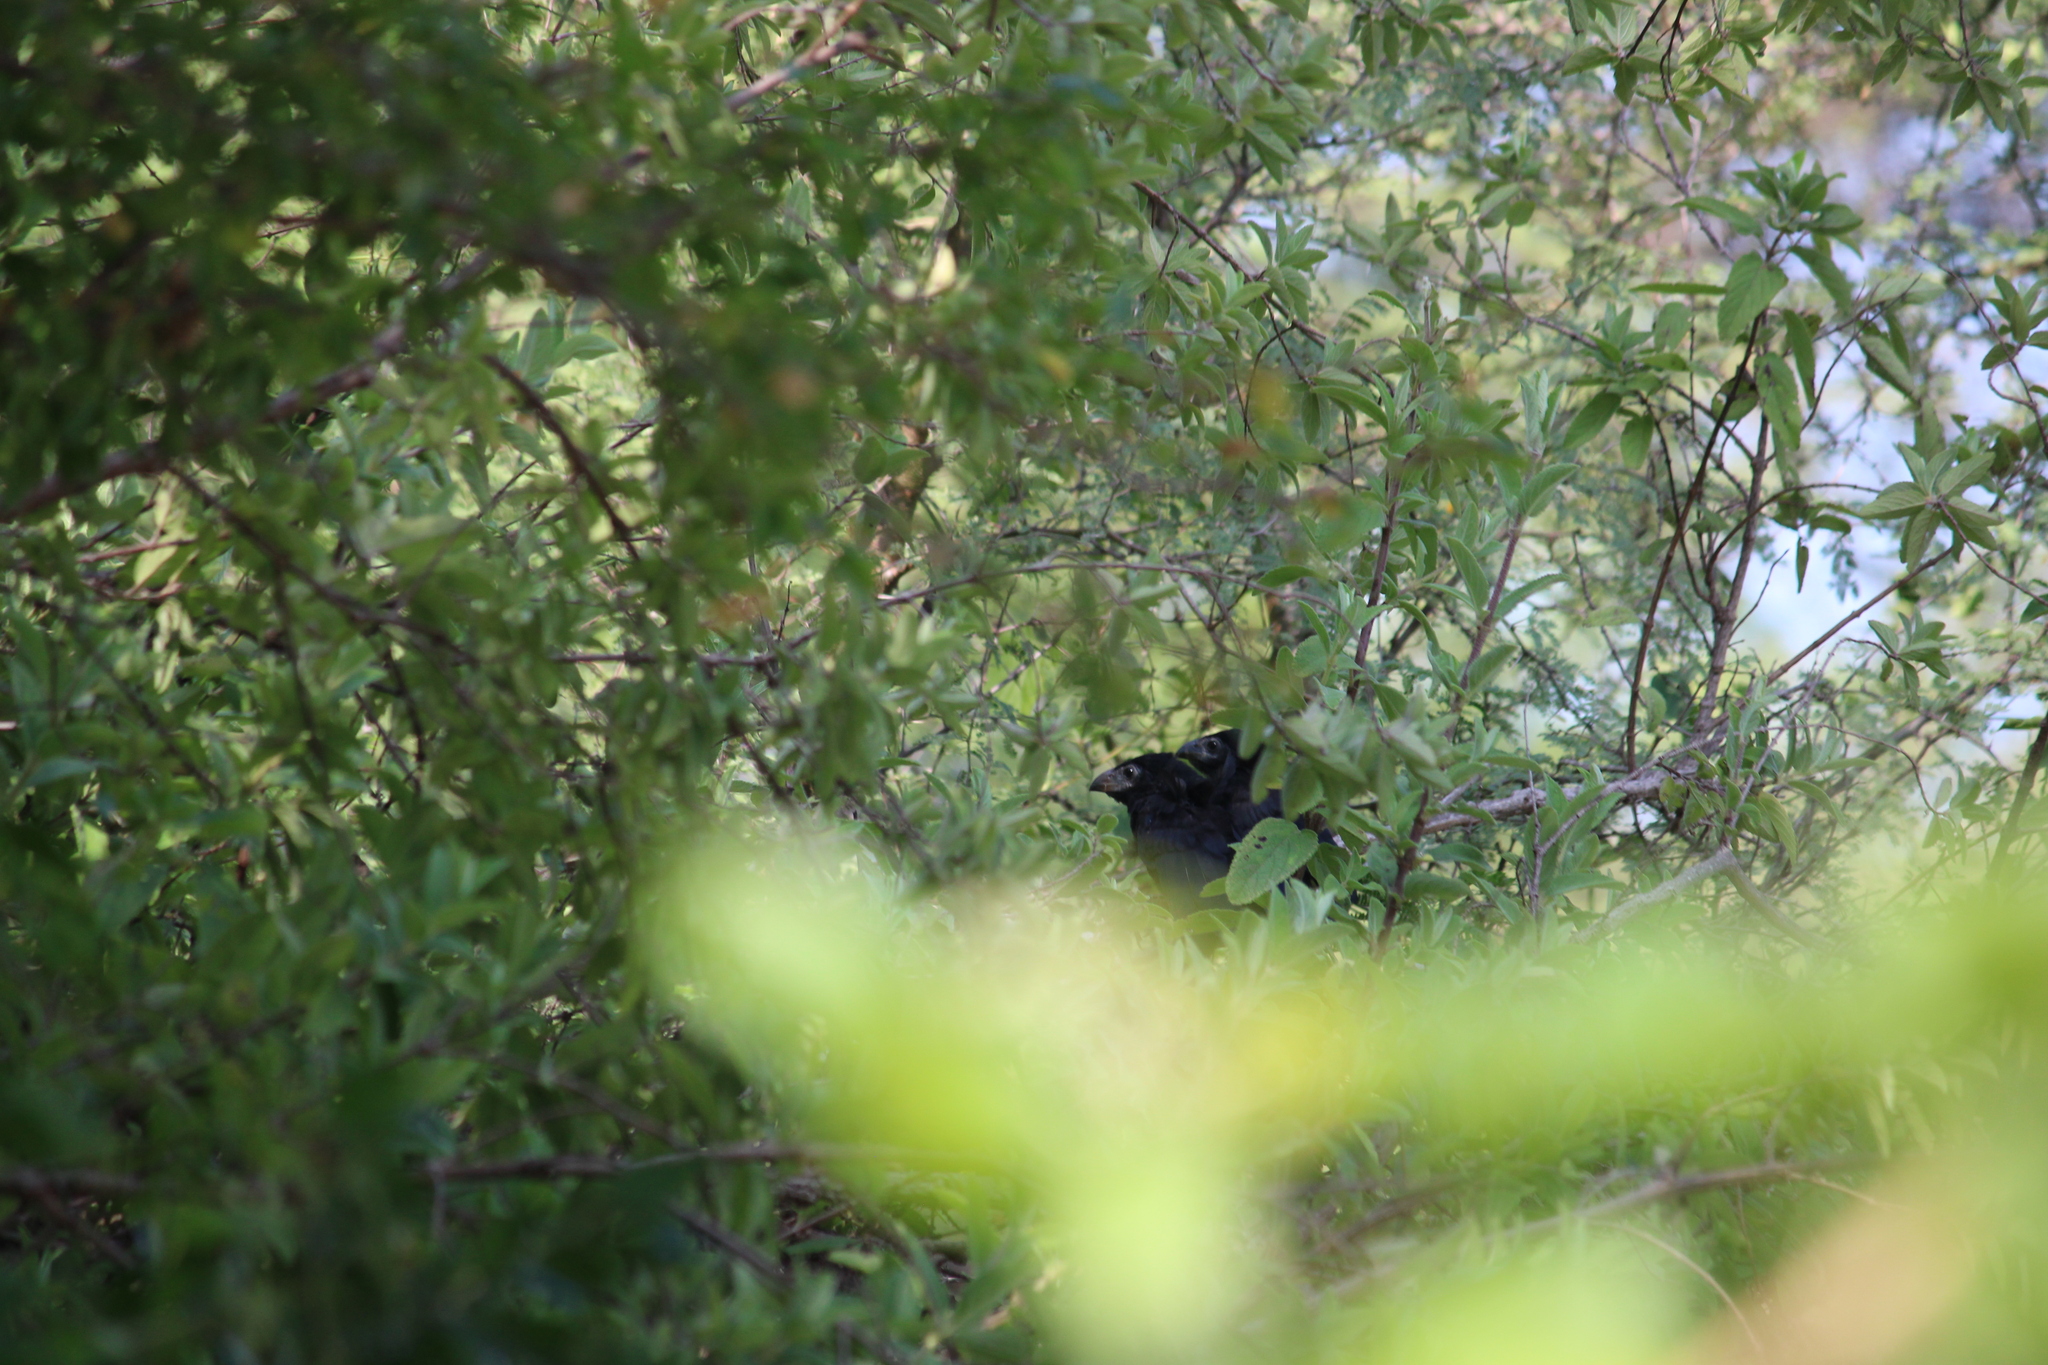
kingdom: Animalia
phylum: Chordata
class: Aves
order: Cuculiformes
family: Cuculidae
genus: Crotophaga
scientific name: Crotophaga sulcirostris
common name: Groove-billed ani
